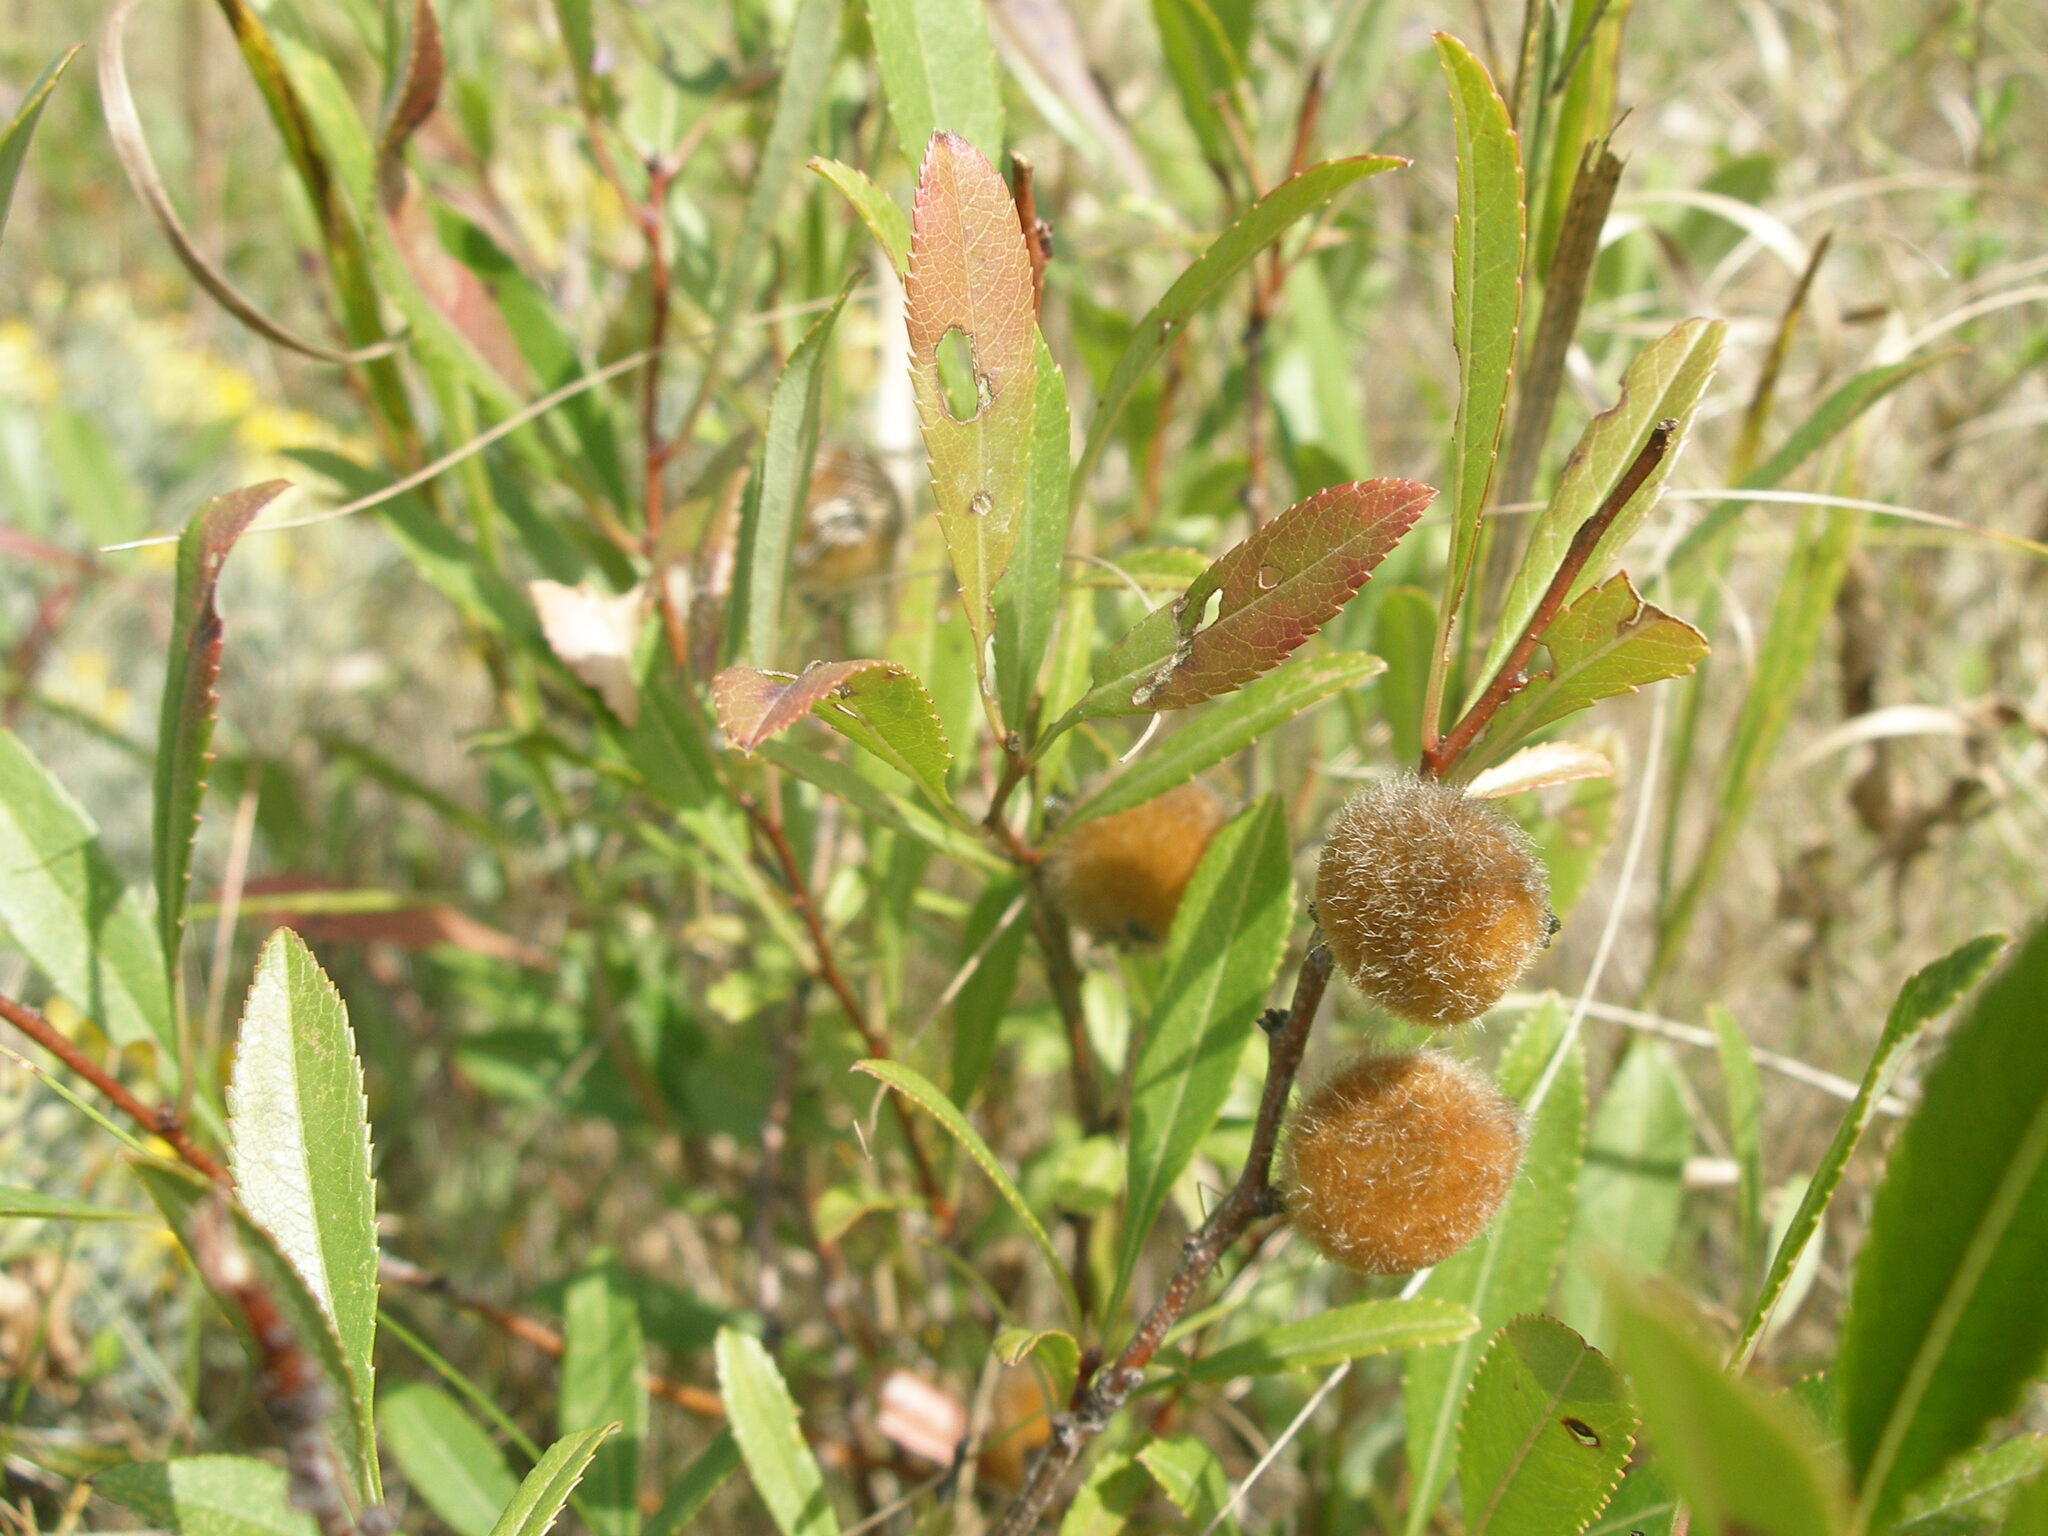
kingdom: Plantae
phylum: Tracheophyta
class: Magnoliopsida
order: Rosales
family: Rosaceae
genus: Prunus
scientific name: Prunus tenella
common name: Dwarf russian almond
